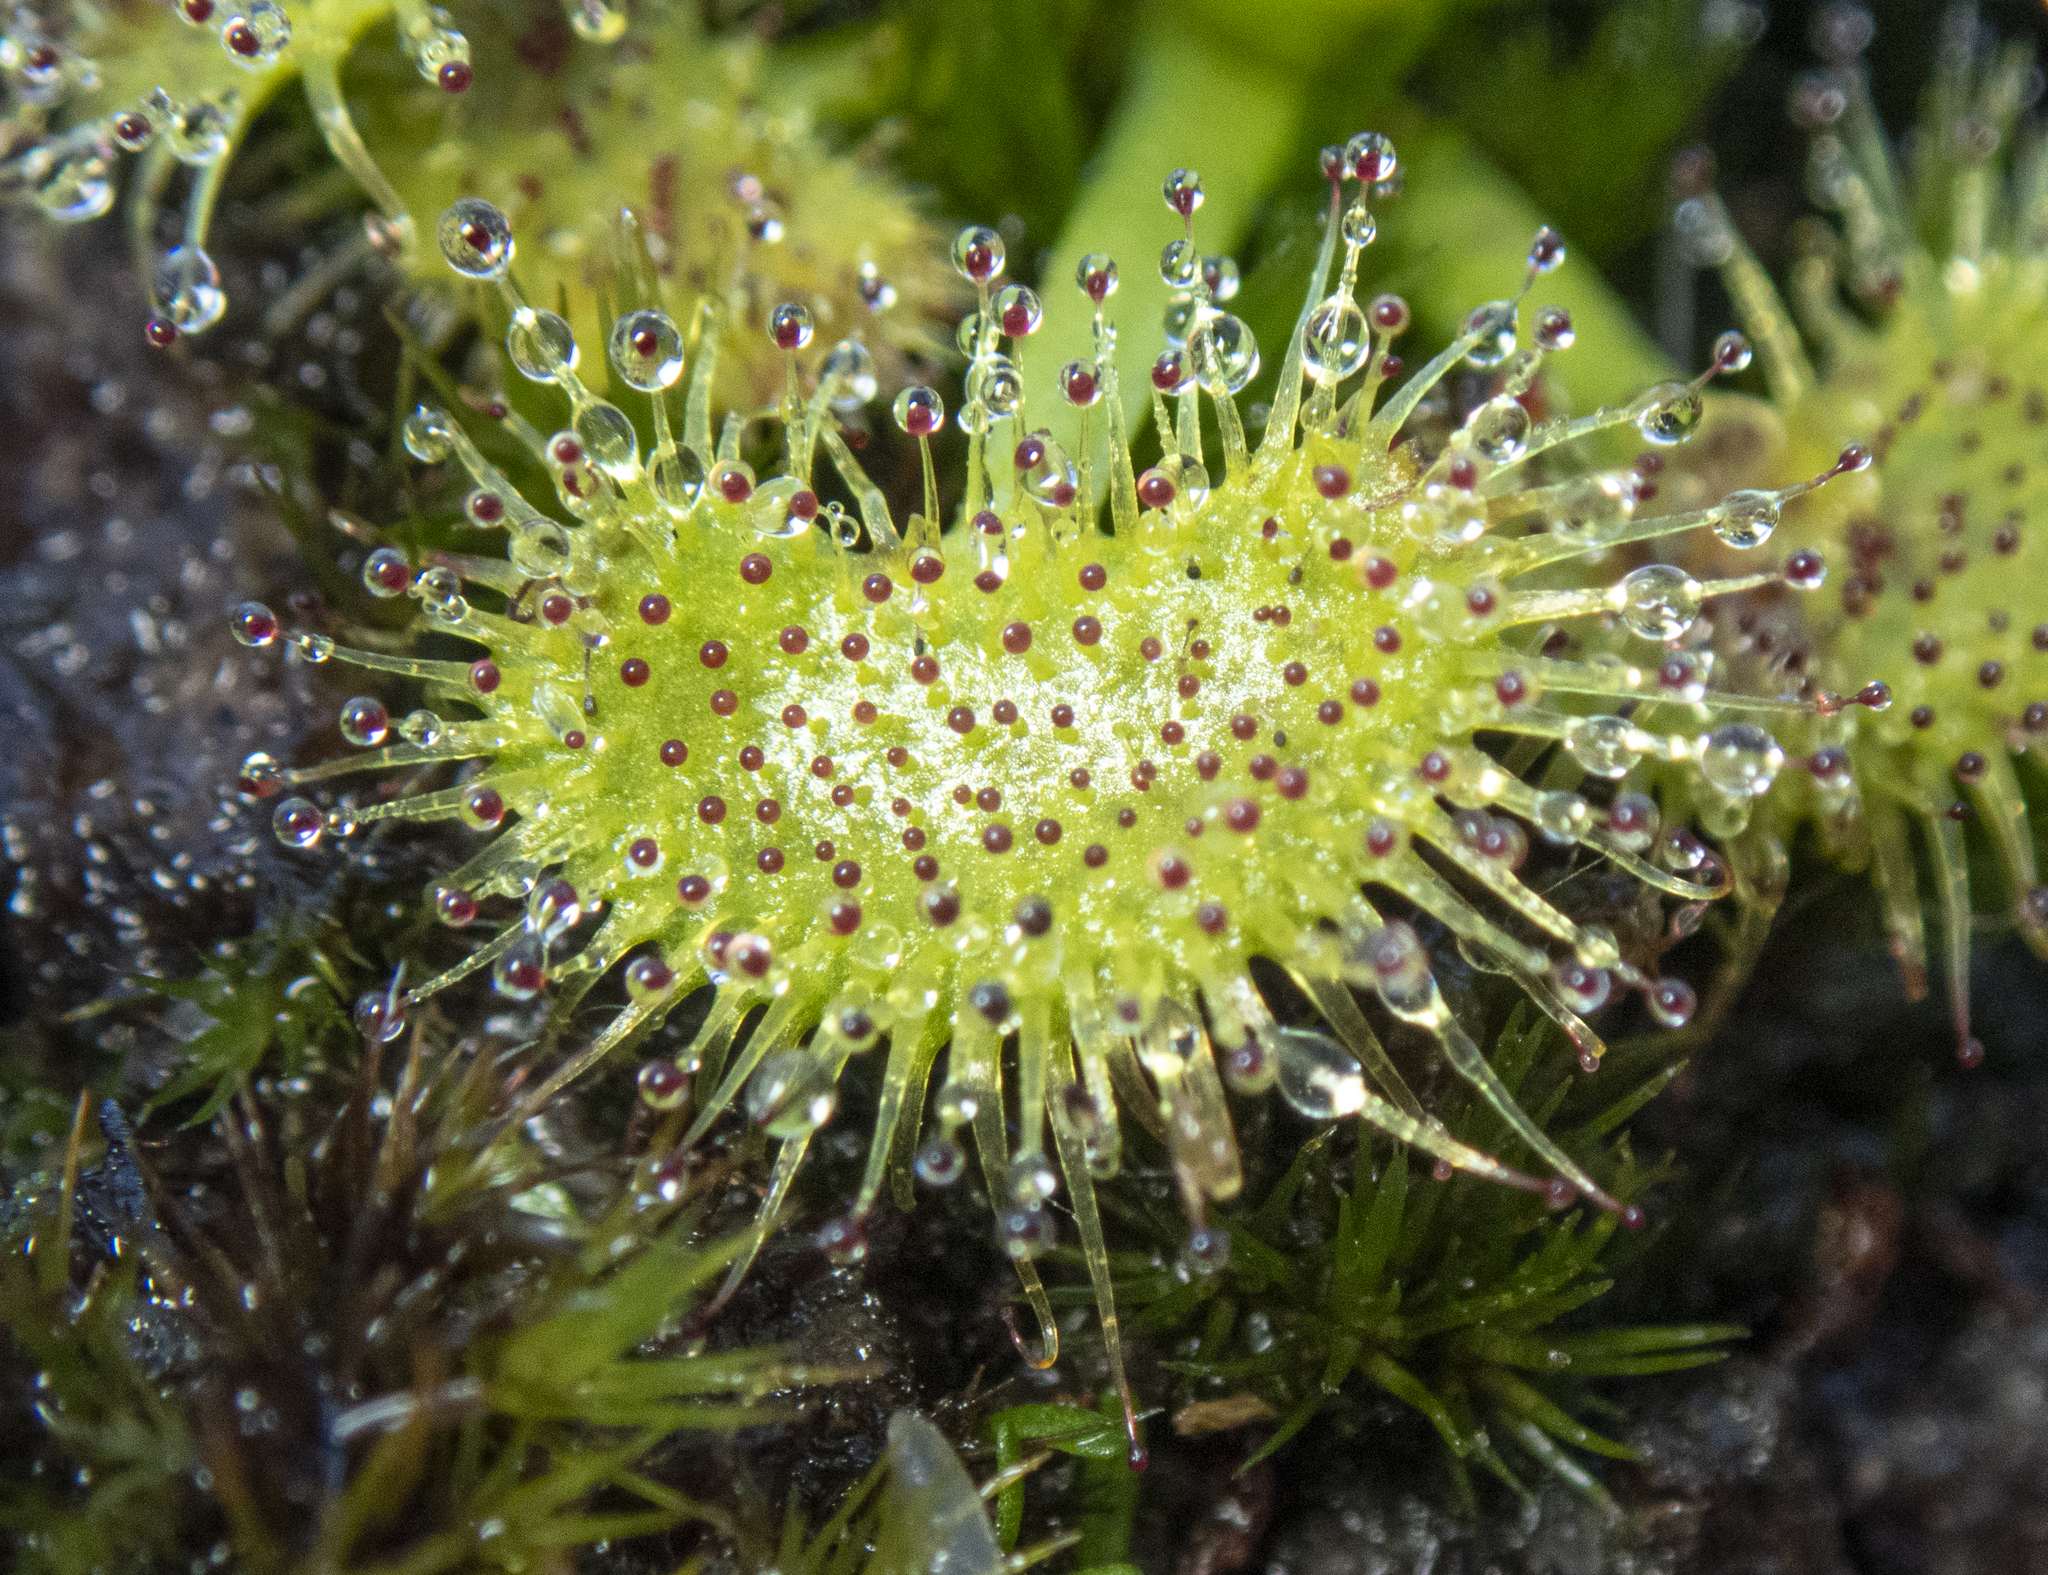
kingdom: Plantae
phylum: Tracheophyta
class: Magnoliopsida
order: Caryophyllales
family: Droseraceae
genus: Drosera
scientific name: Drosera gunniana
